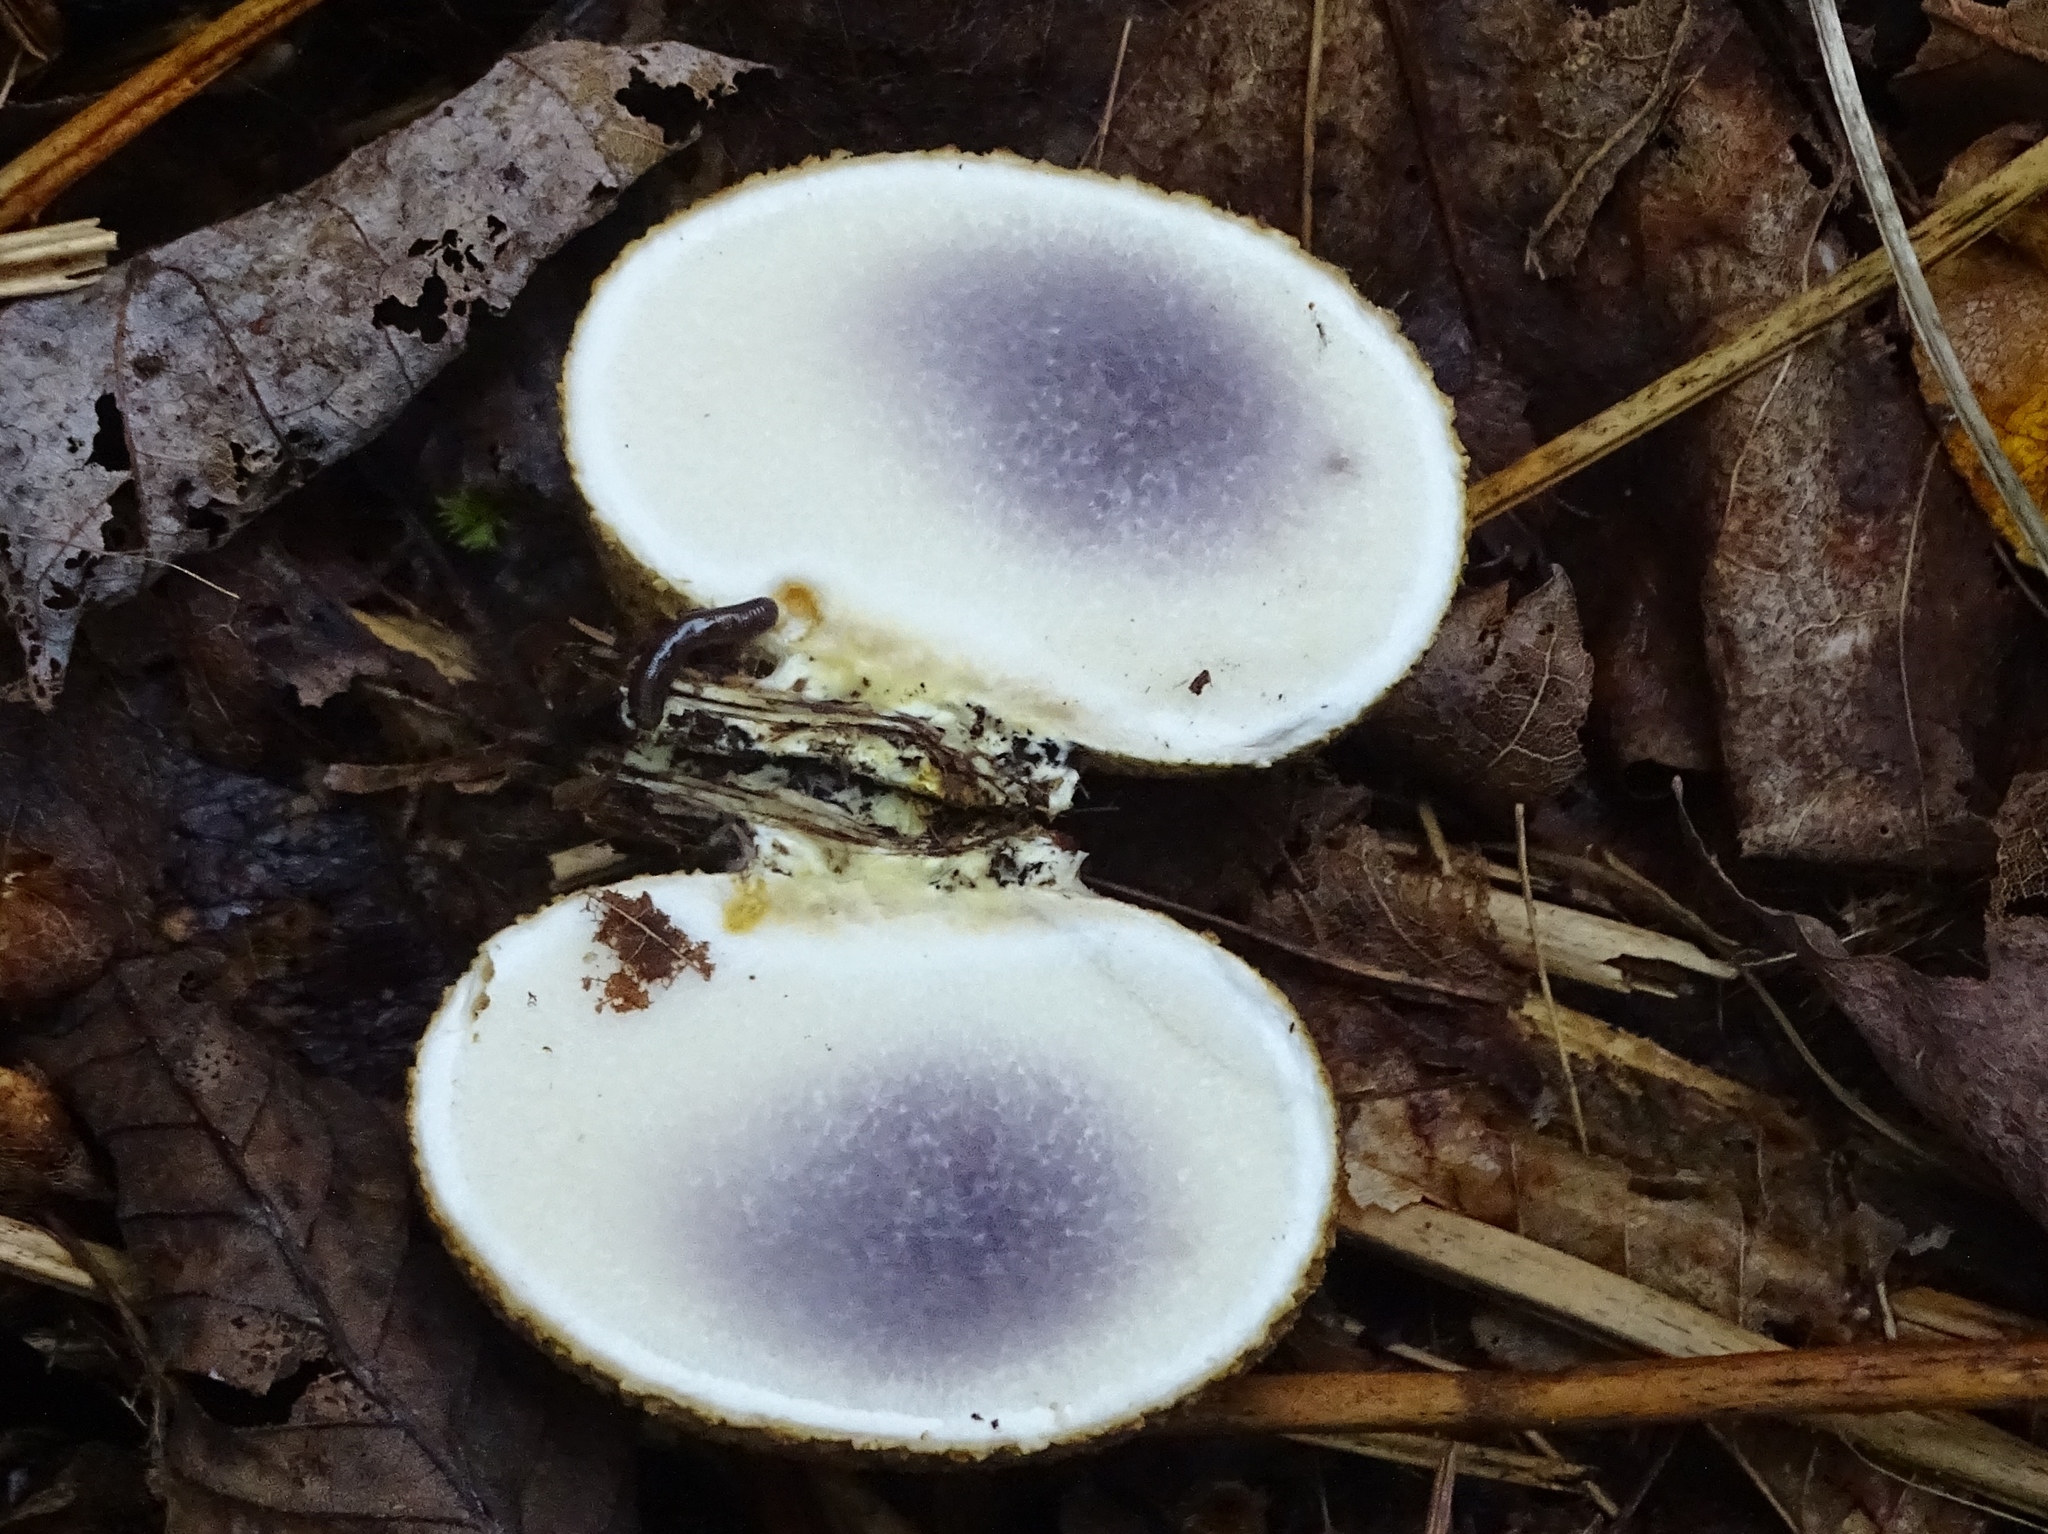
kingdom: Fungi
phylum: Basidiomycota
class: Agaricomycetes
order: Boletales
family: Sclerodermataceae
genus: Scleroderma
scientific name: Scleroderma citrinum
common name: Common earthball
